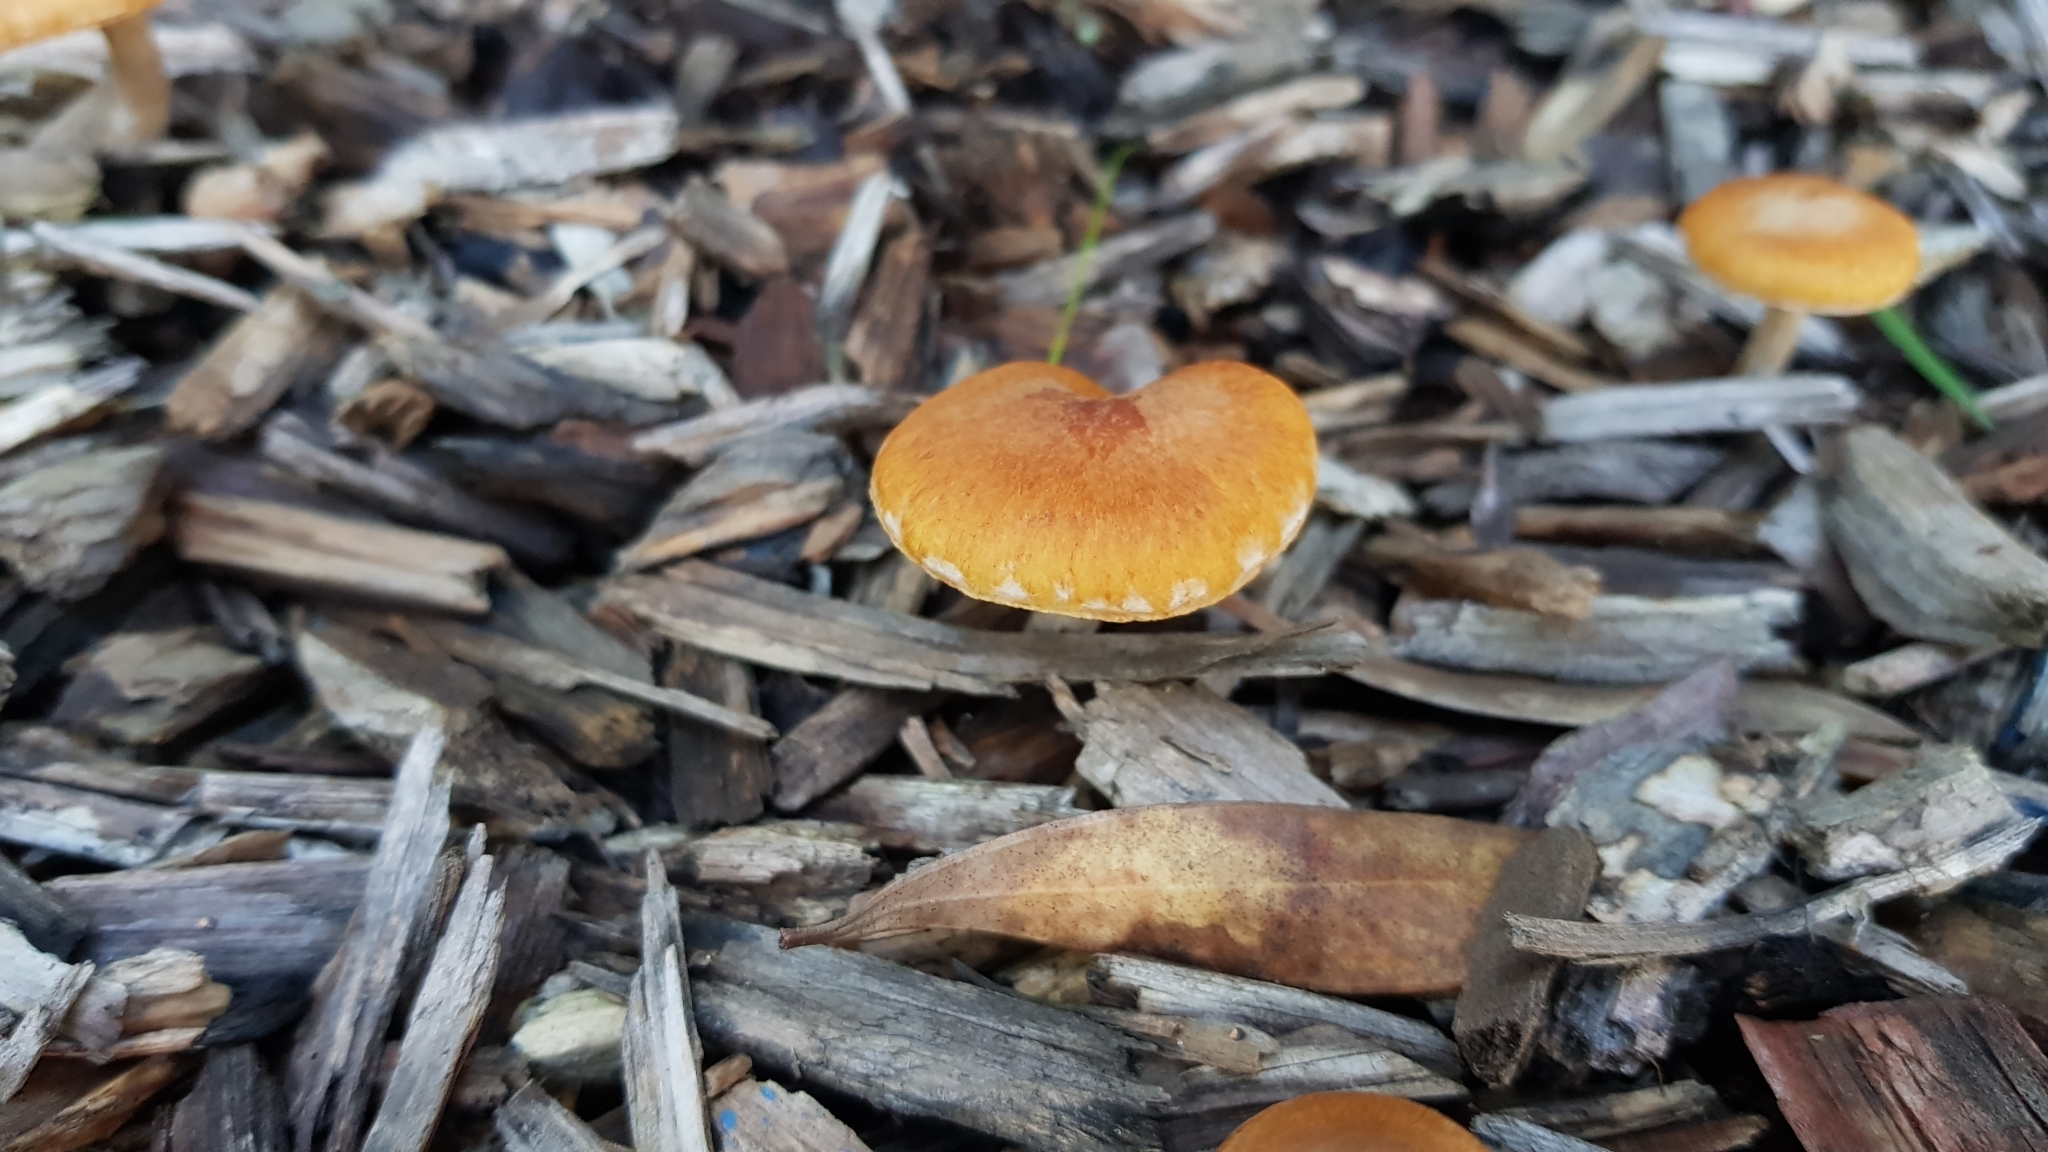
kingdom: Fungi
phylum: Basidiomycota
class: Agaricomycetes
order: Agaricales
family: Hymenogastraceae
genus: Gymnopilus
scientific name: Gymnopilus allantopus
